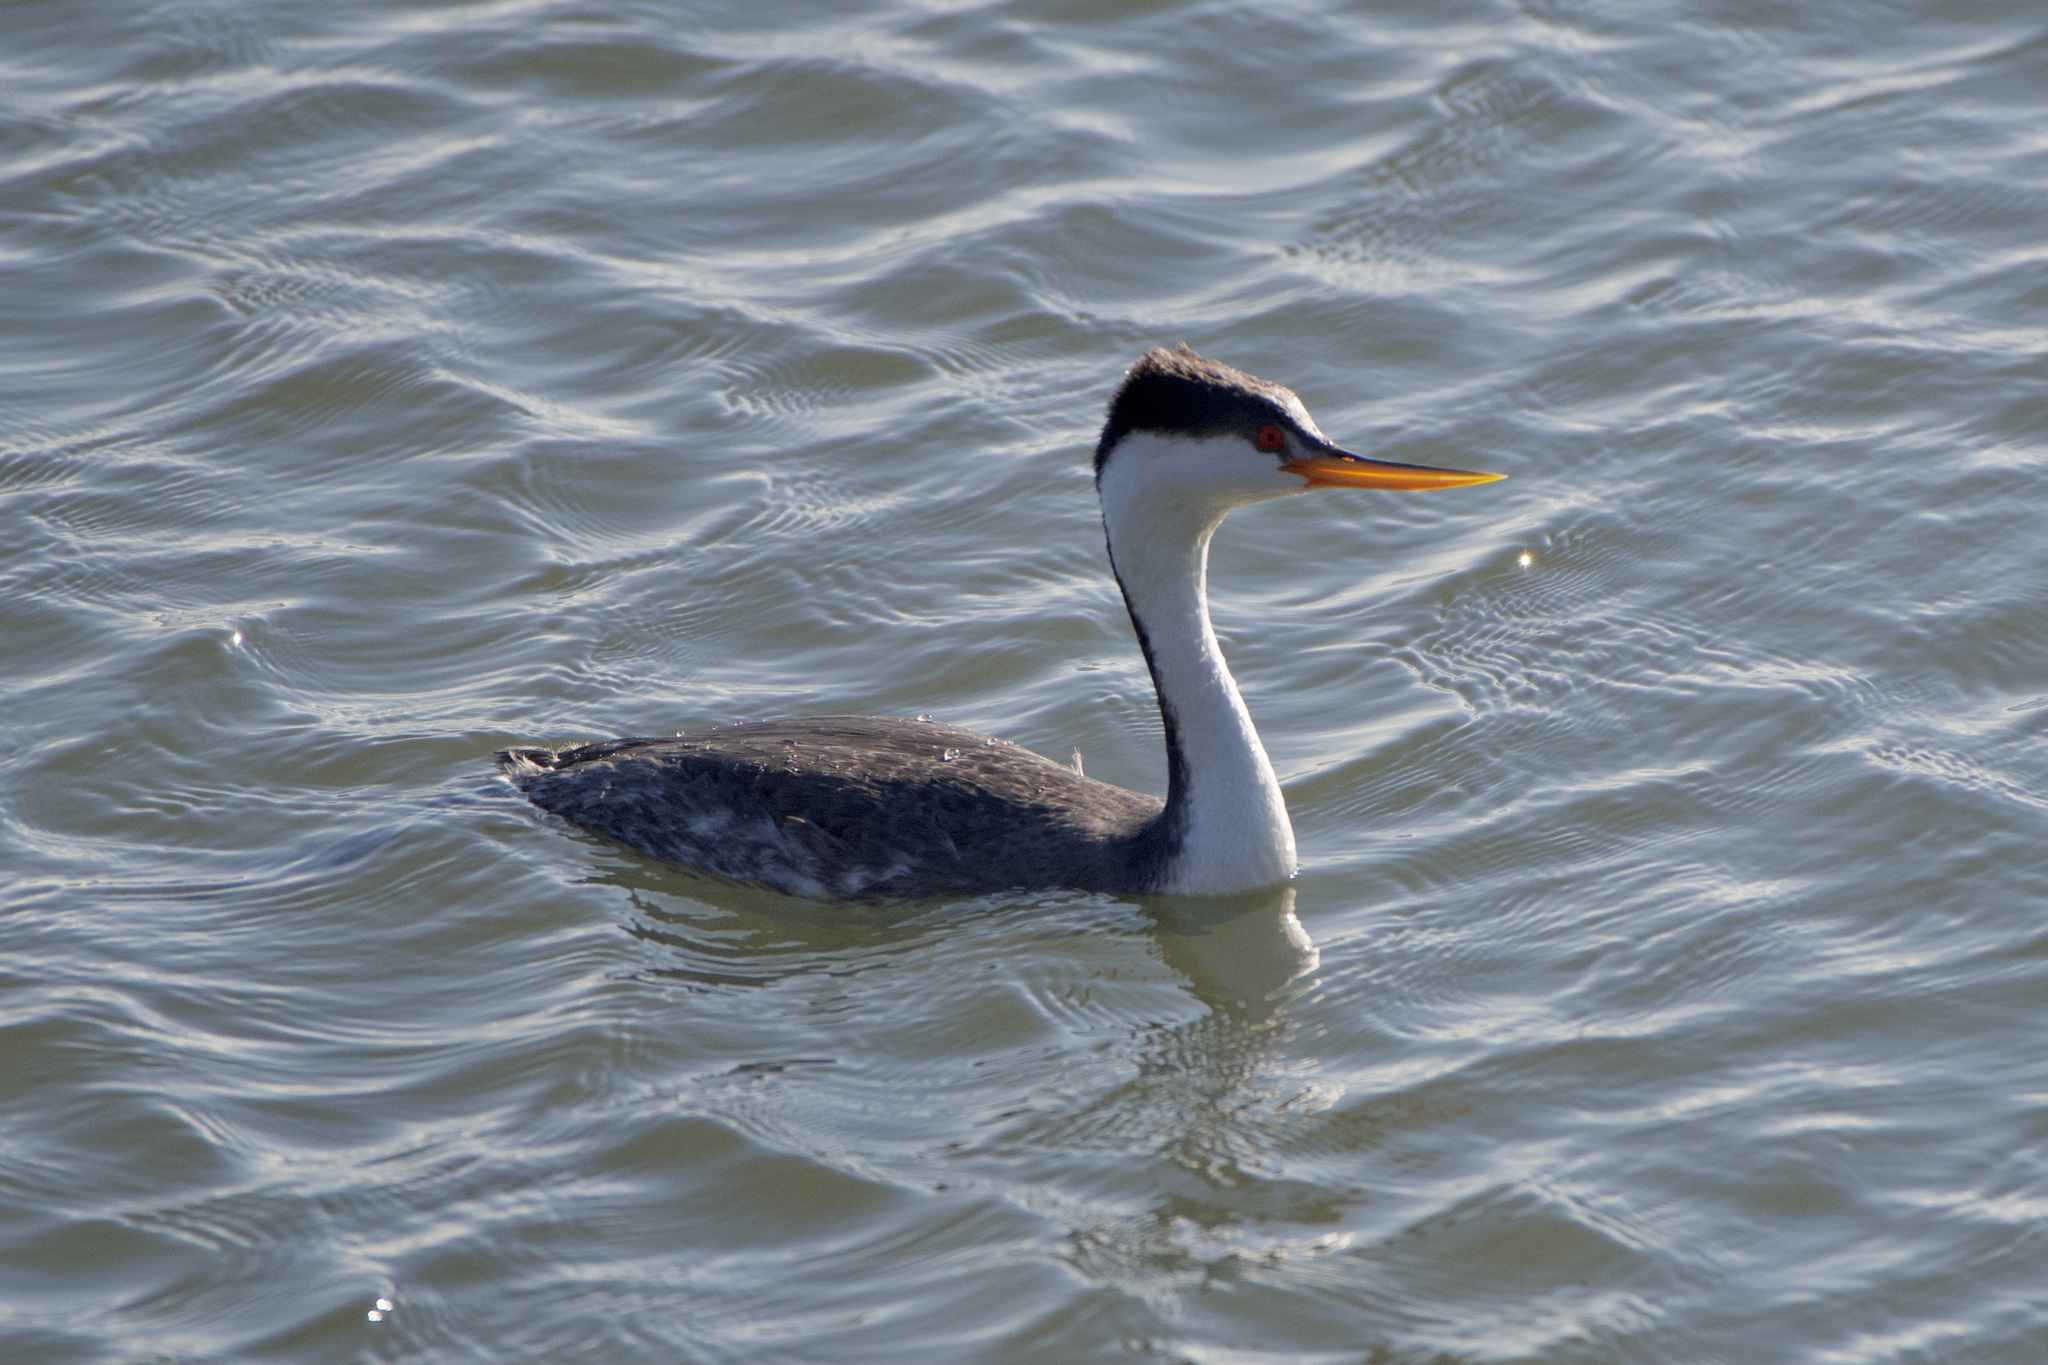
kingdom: Animalia
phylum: Chordata
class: Aves
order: Podicipediformes
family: Podicipedidae
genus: Aechmophorus
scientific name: Aechmophorus clarkii
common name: Clark's grebe
